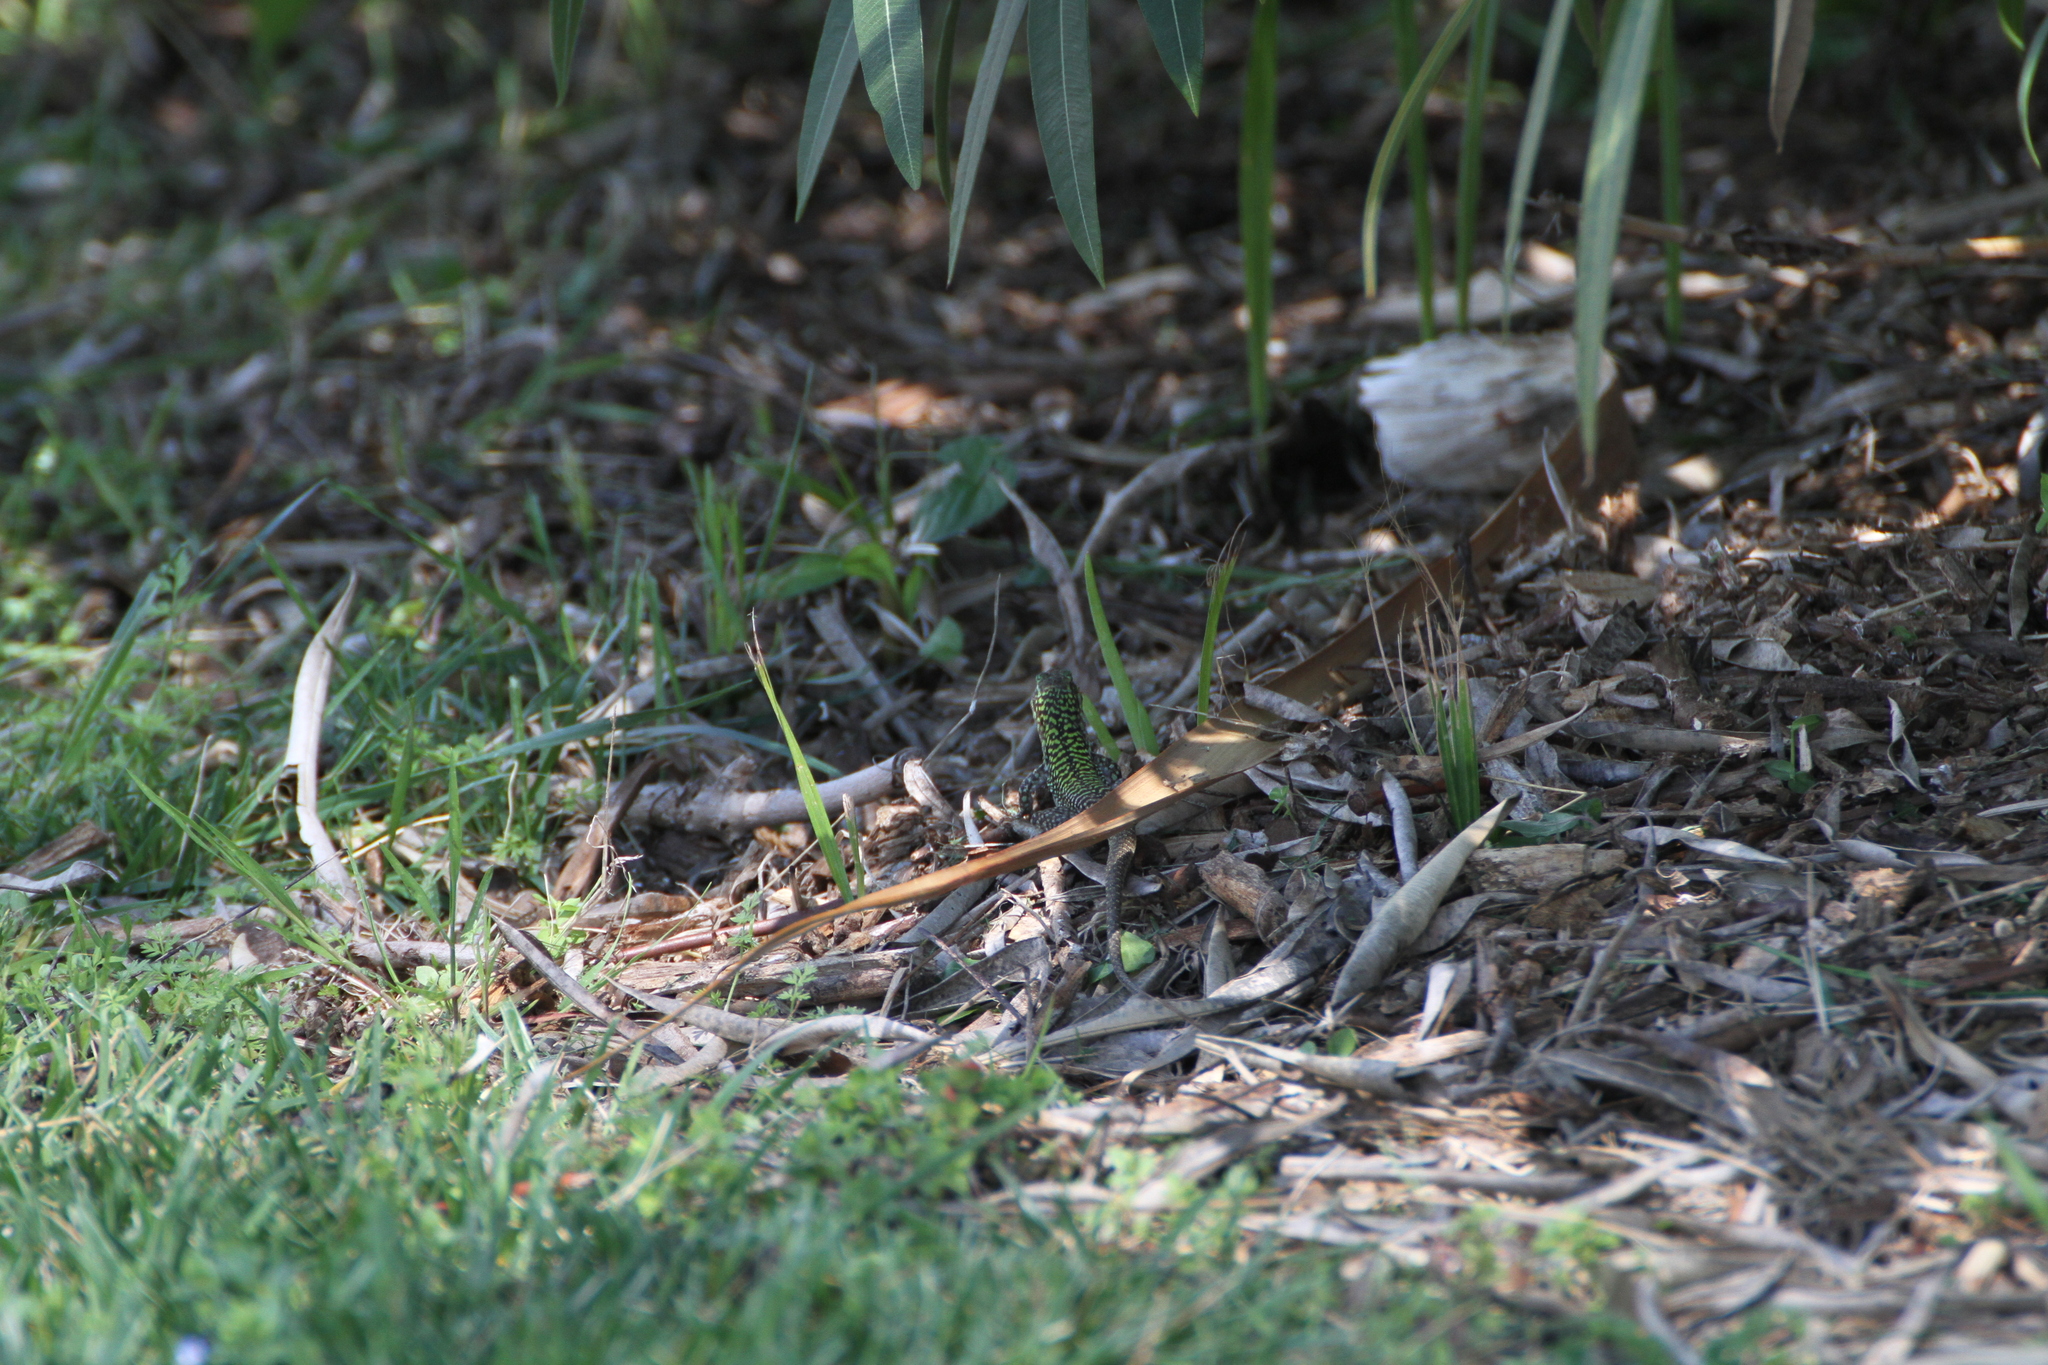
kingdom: Animalia
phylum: Chordata
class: Squamata
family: Lacertidae
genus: Podarcis
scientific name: Podarcis siculus
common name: Italian wall lizard
